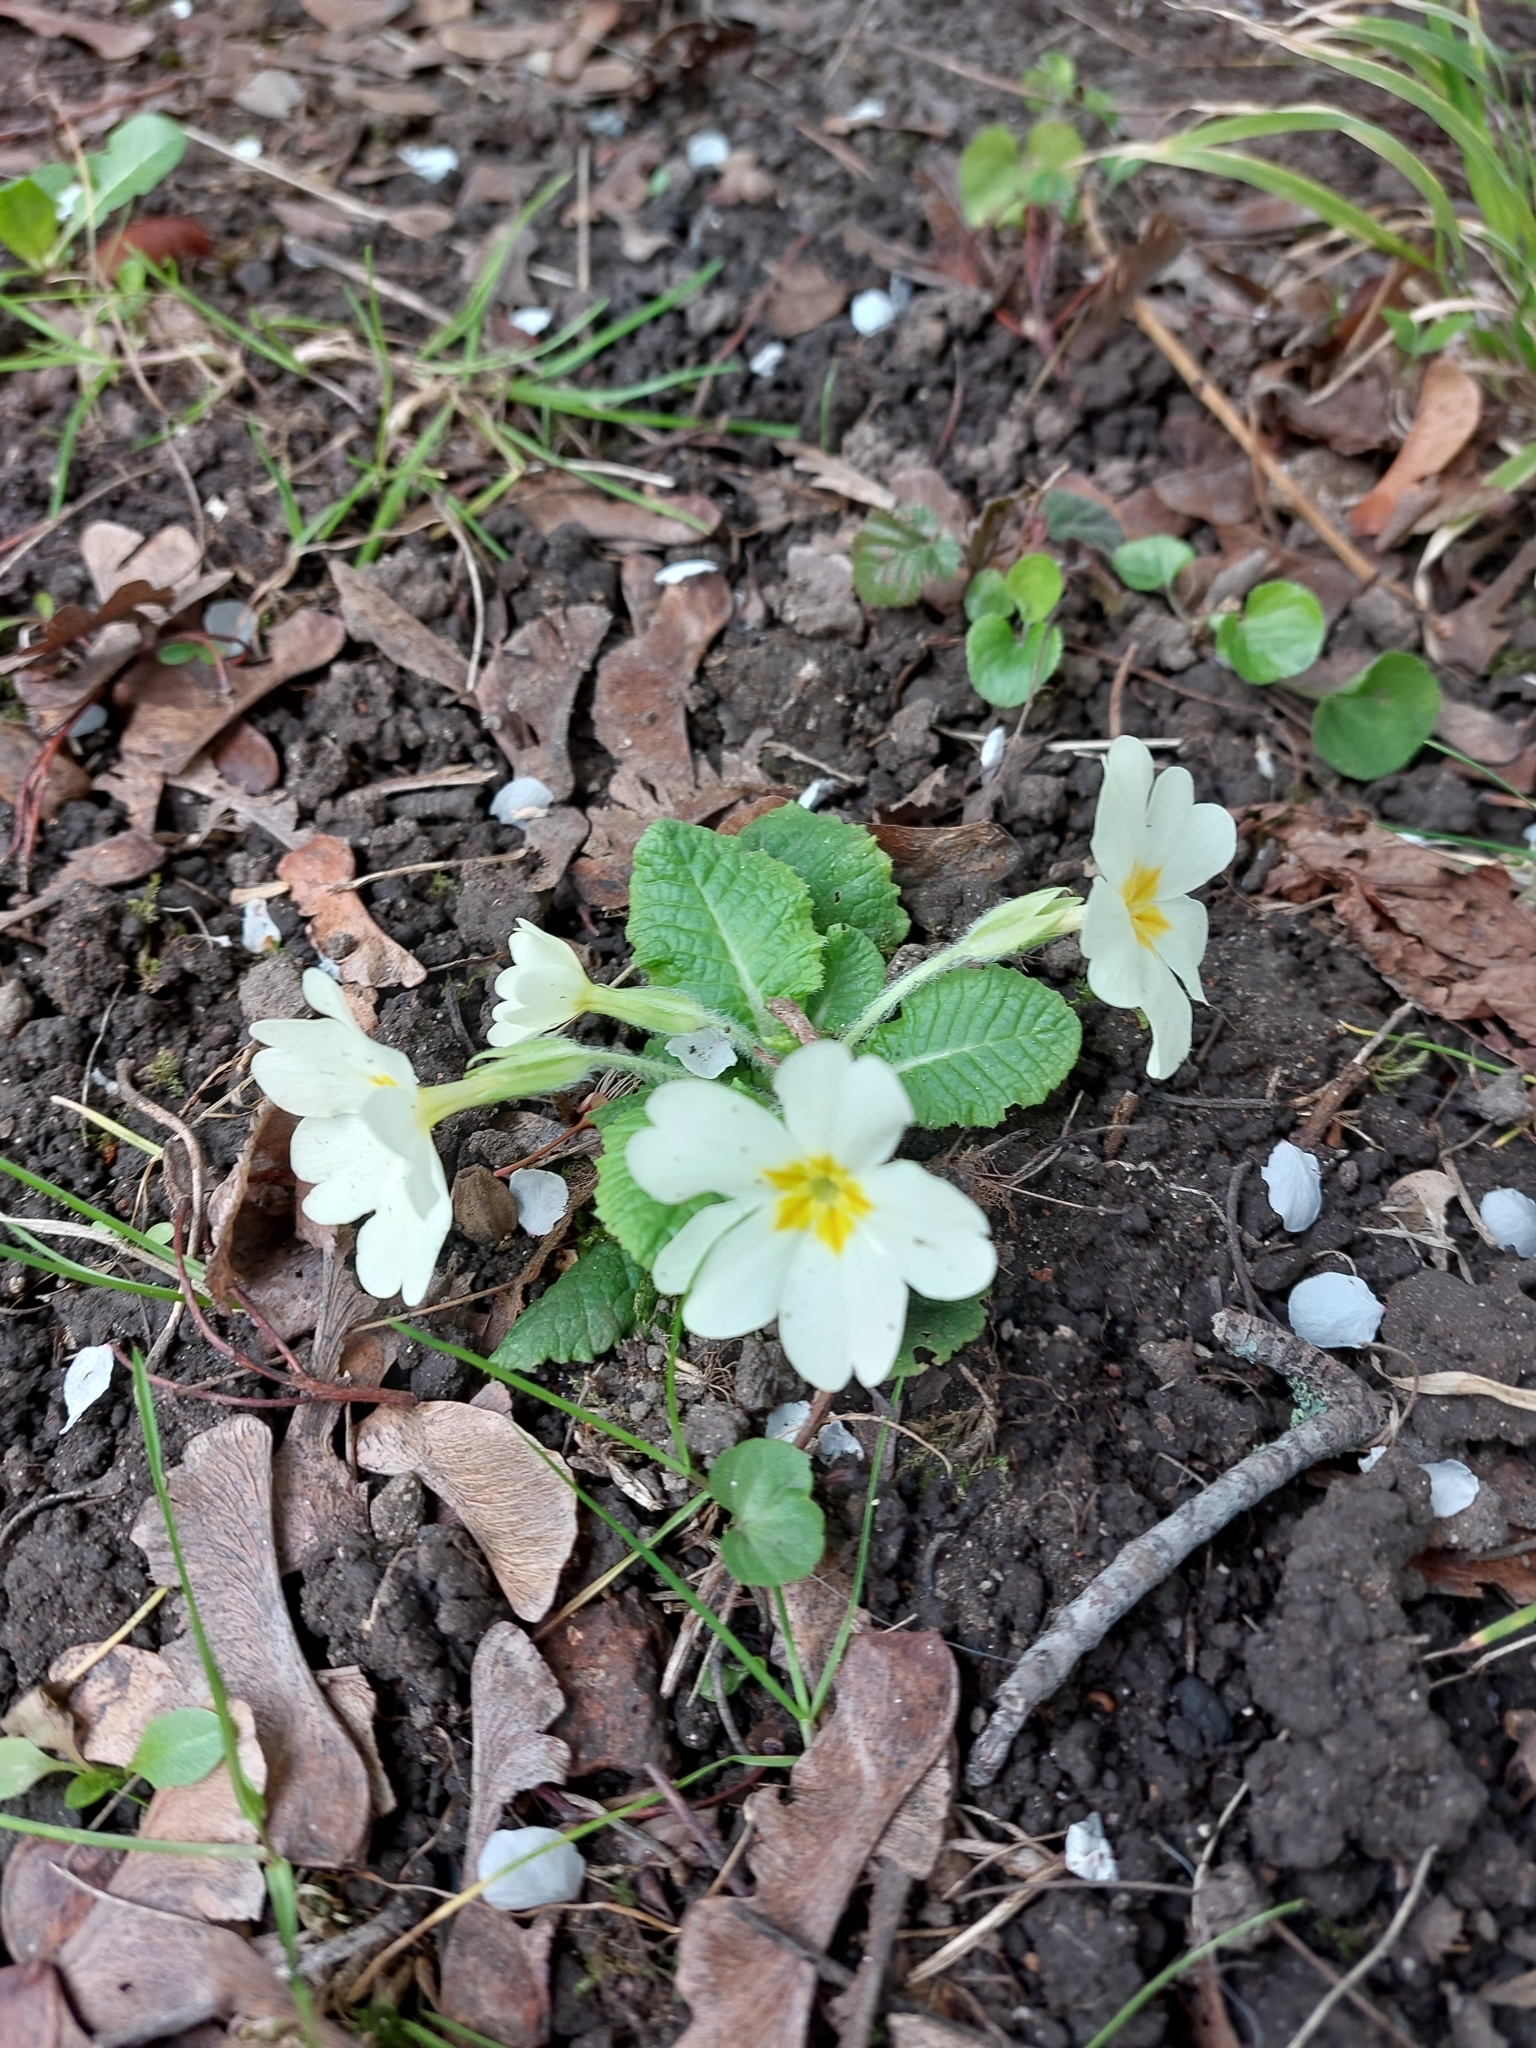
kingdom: Plantae
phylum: Tracheophyta
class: Magnoliopsida
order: Ericales
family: Primulaceae
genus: Primula
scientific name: Primula vulgaris
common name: Primrose
